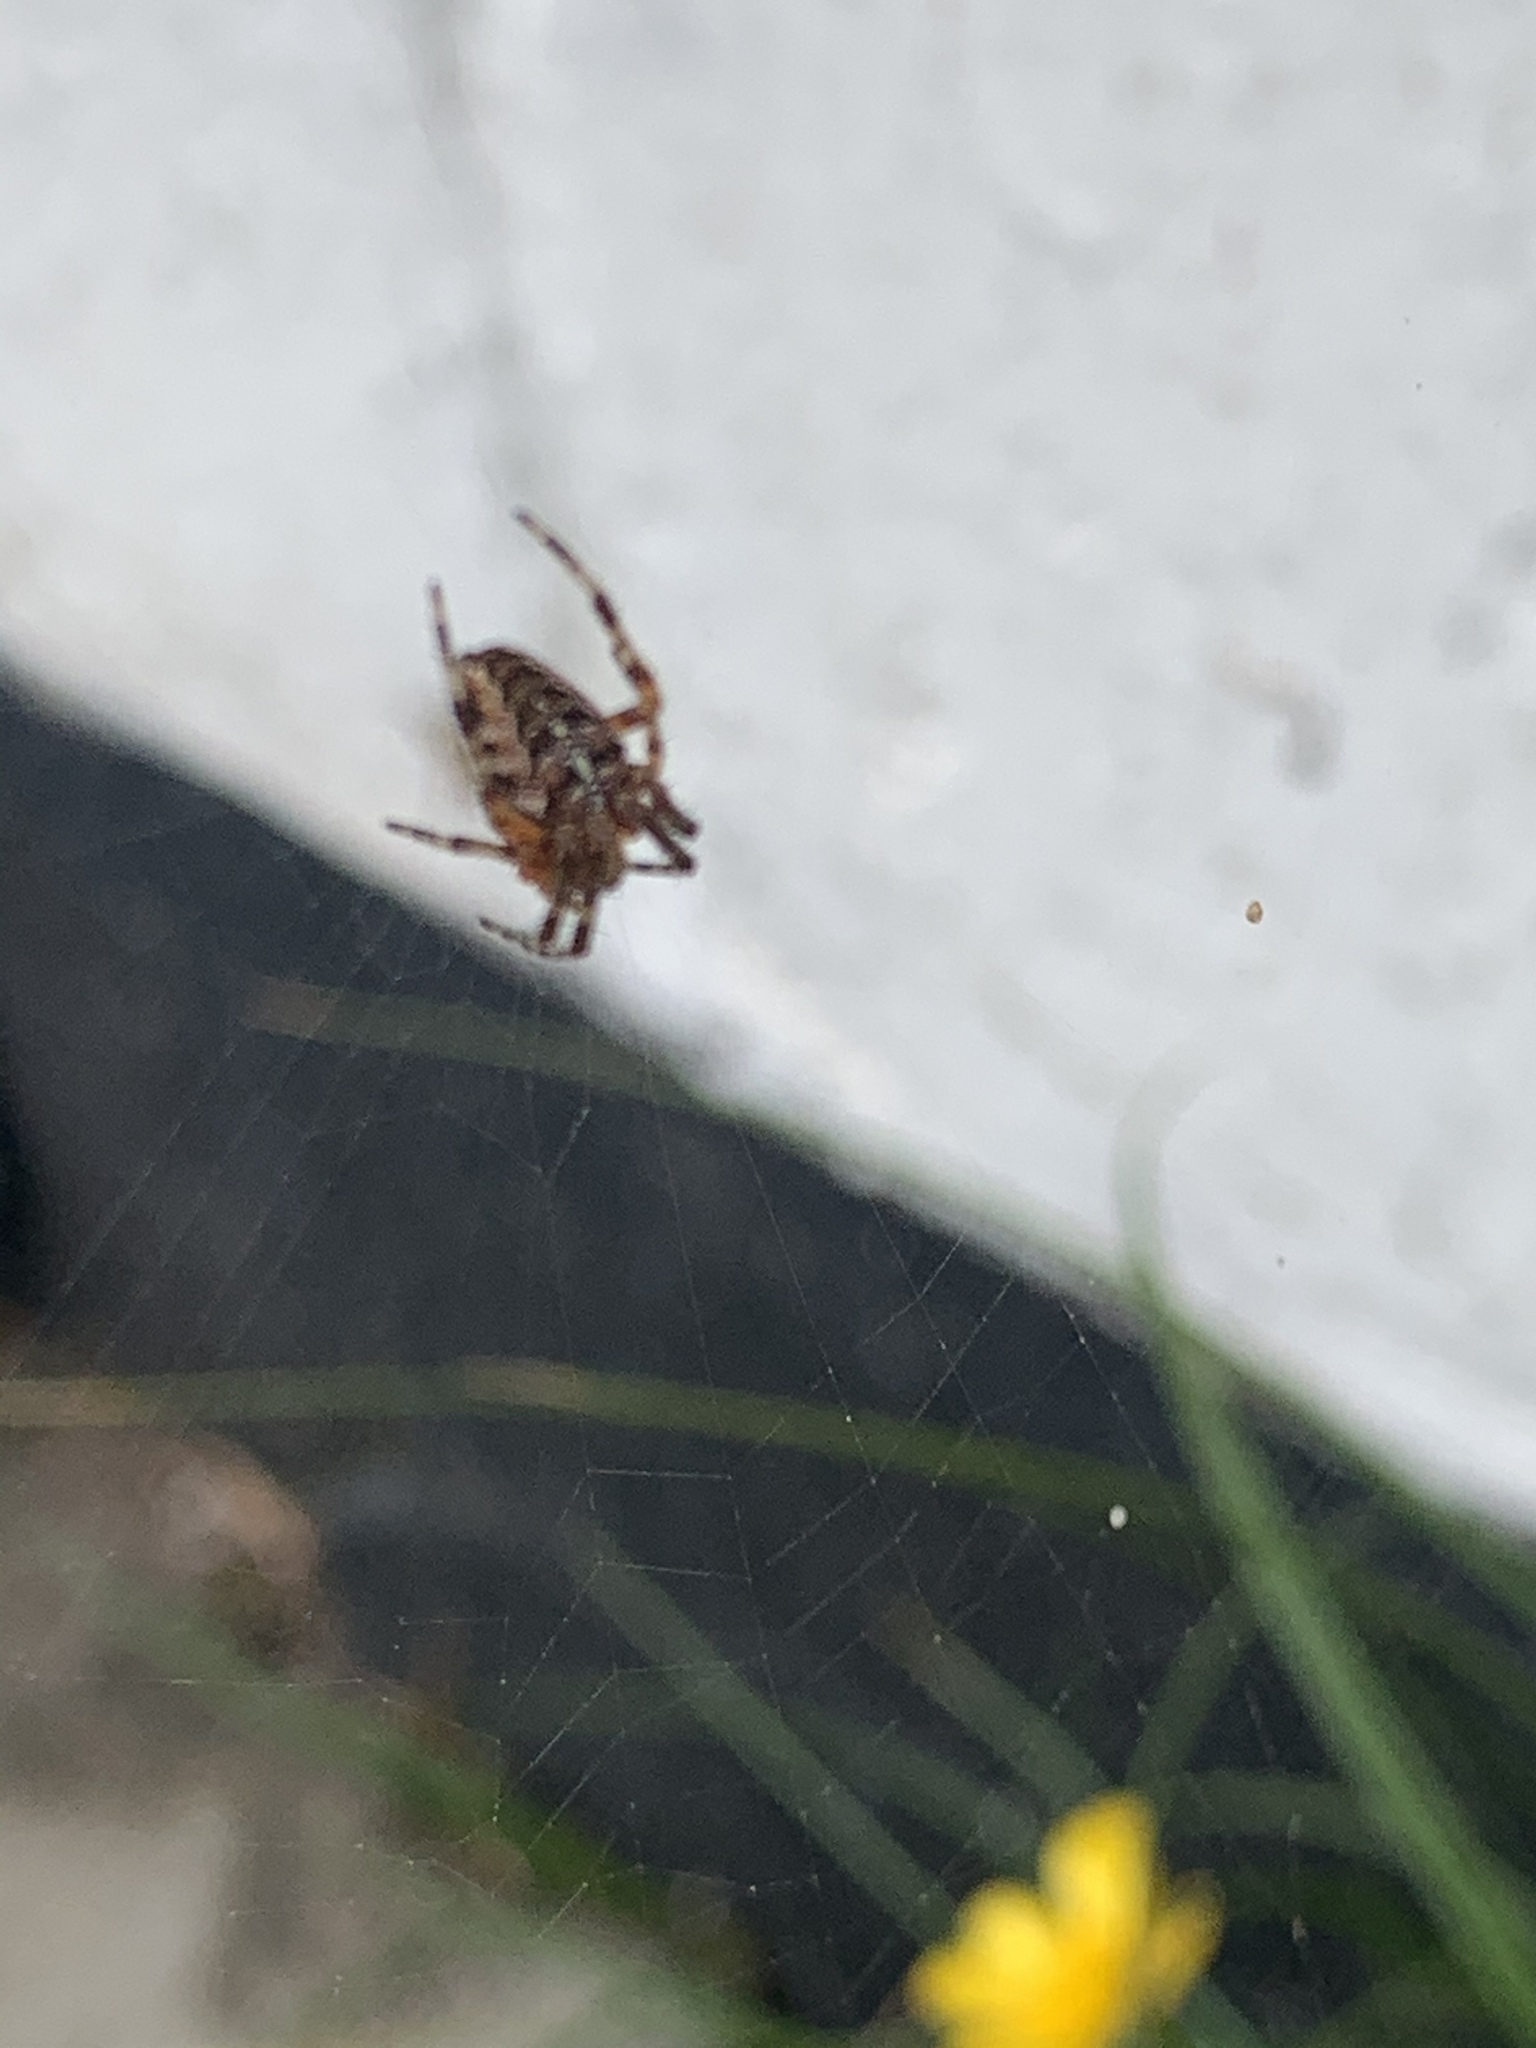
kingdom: Animalia
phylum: Arthropoda
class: Arachnida
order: Araneae
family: Araneidae
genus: Araneus
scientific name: Araneus diadematus
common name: Cross orbweaver
